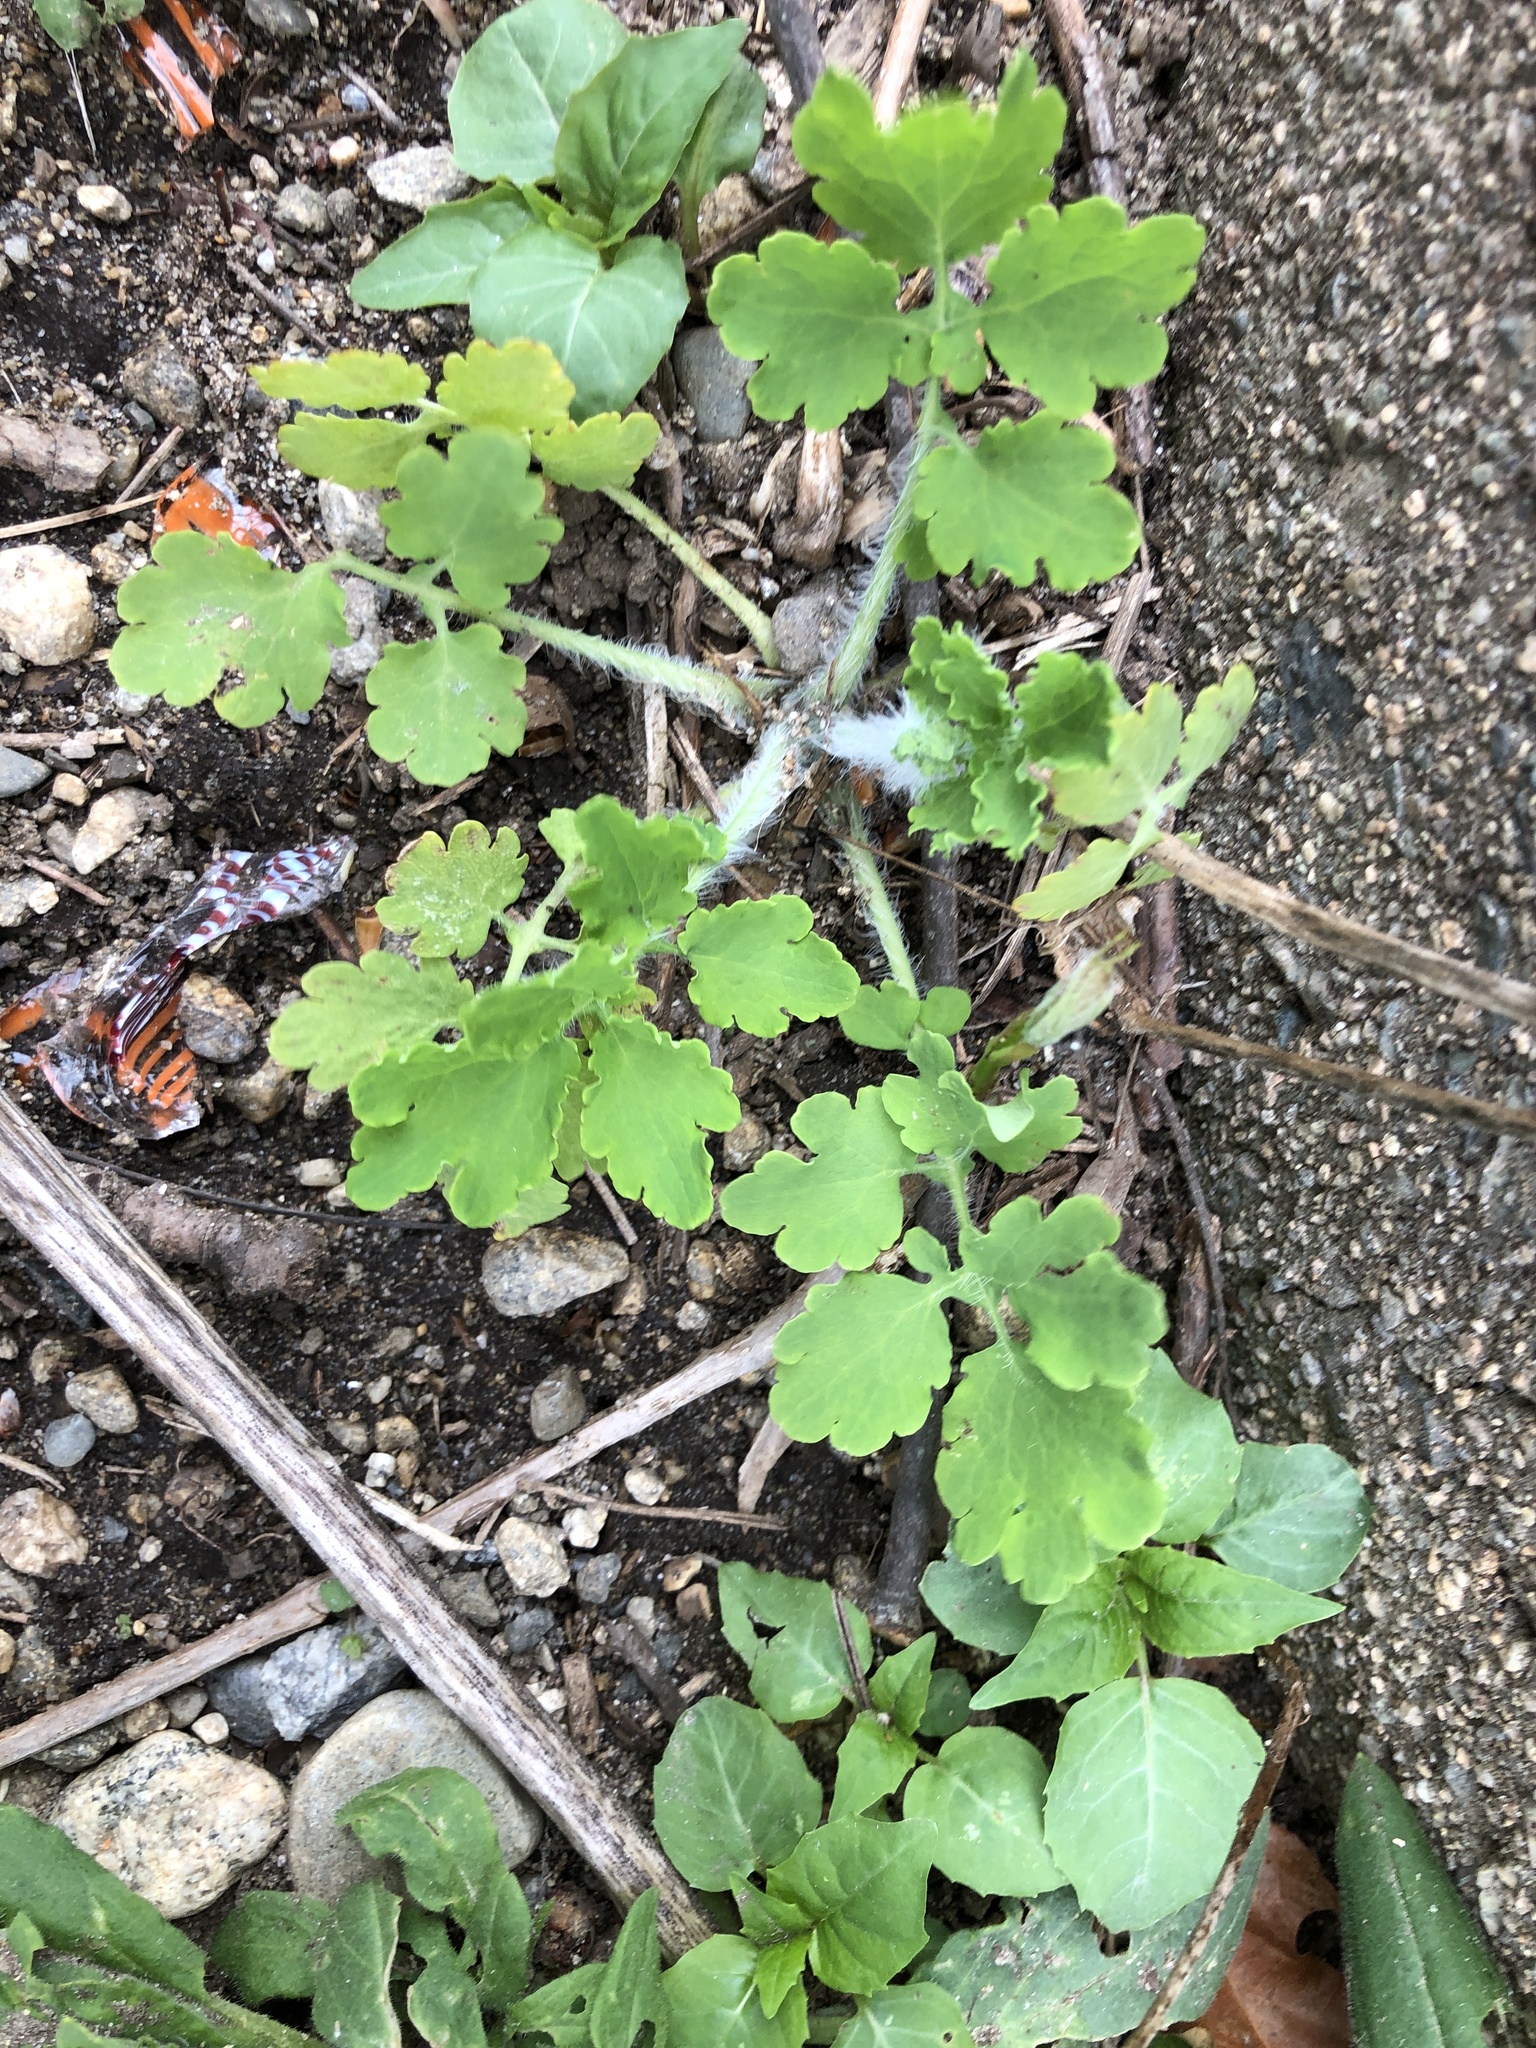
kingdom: Plantae
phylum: Tracheophyta
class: Magnoliopsida
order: Ranunculales
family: Papaveraceae
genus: Chelidonium
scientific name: Chelidonium majus
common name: Greater celandine
